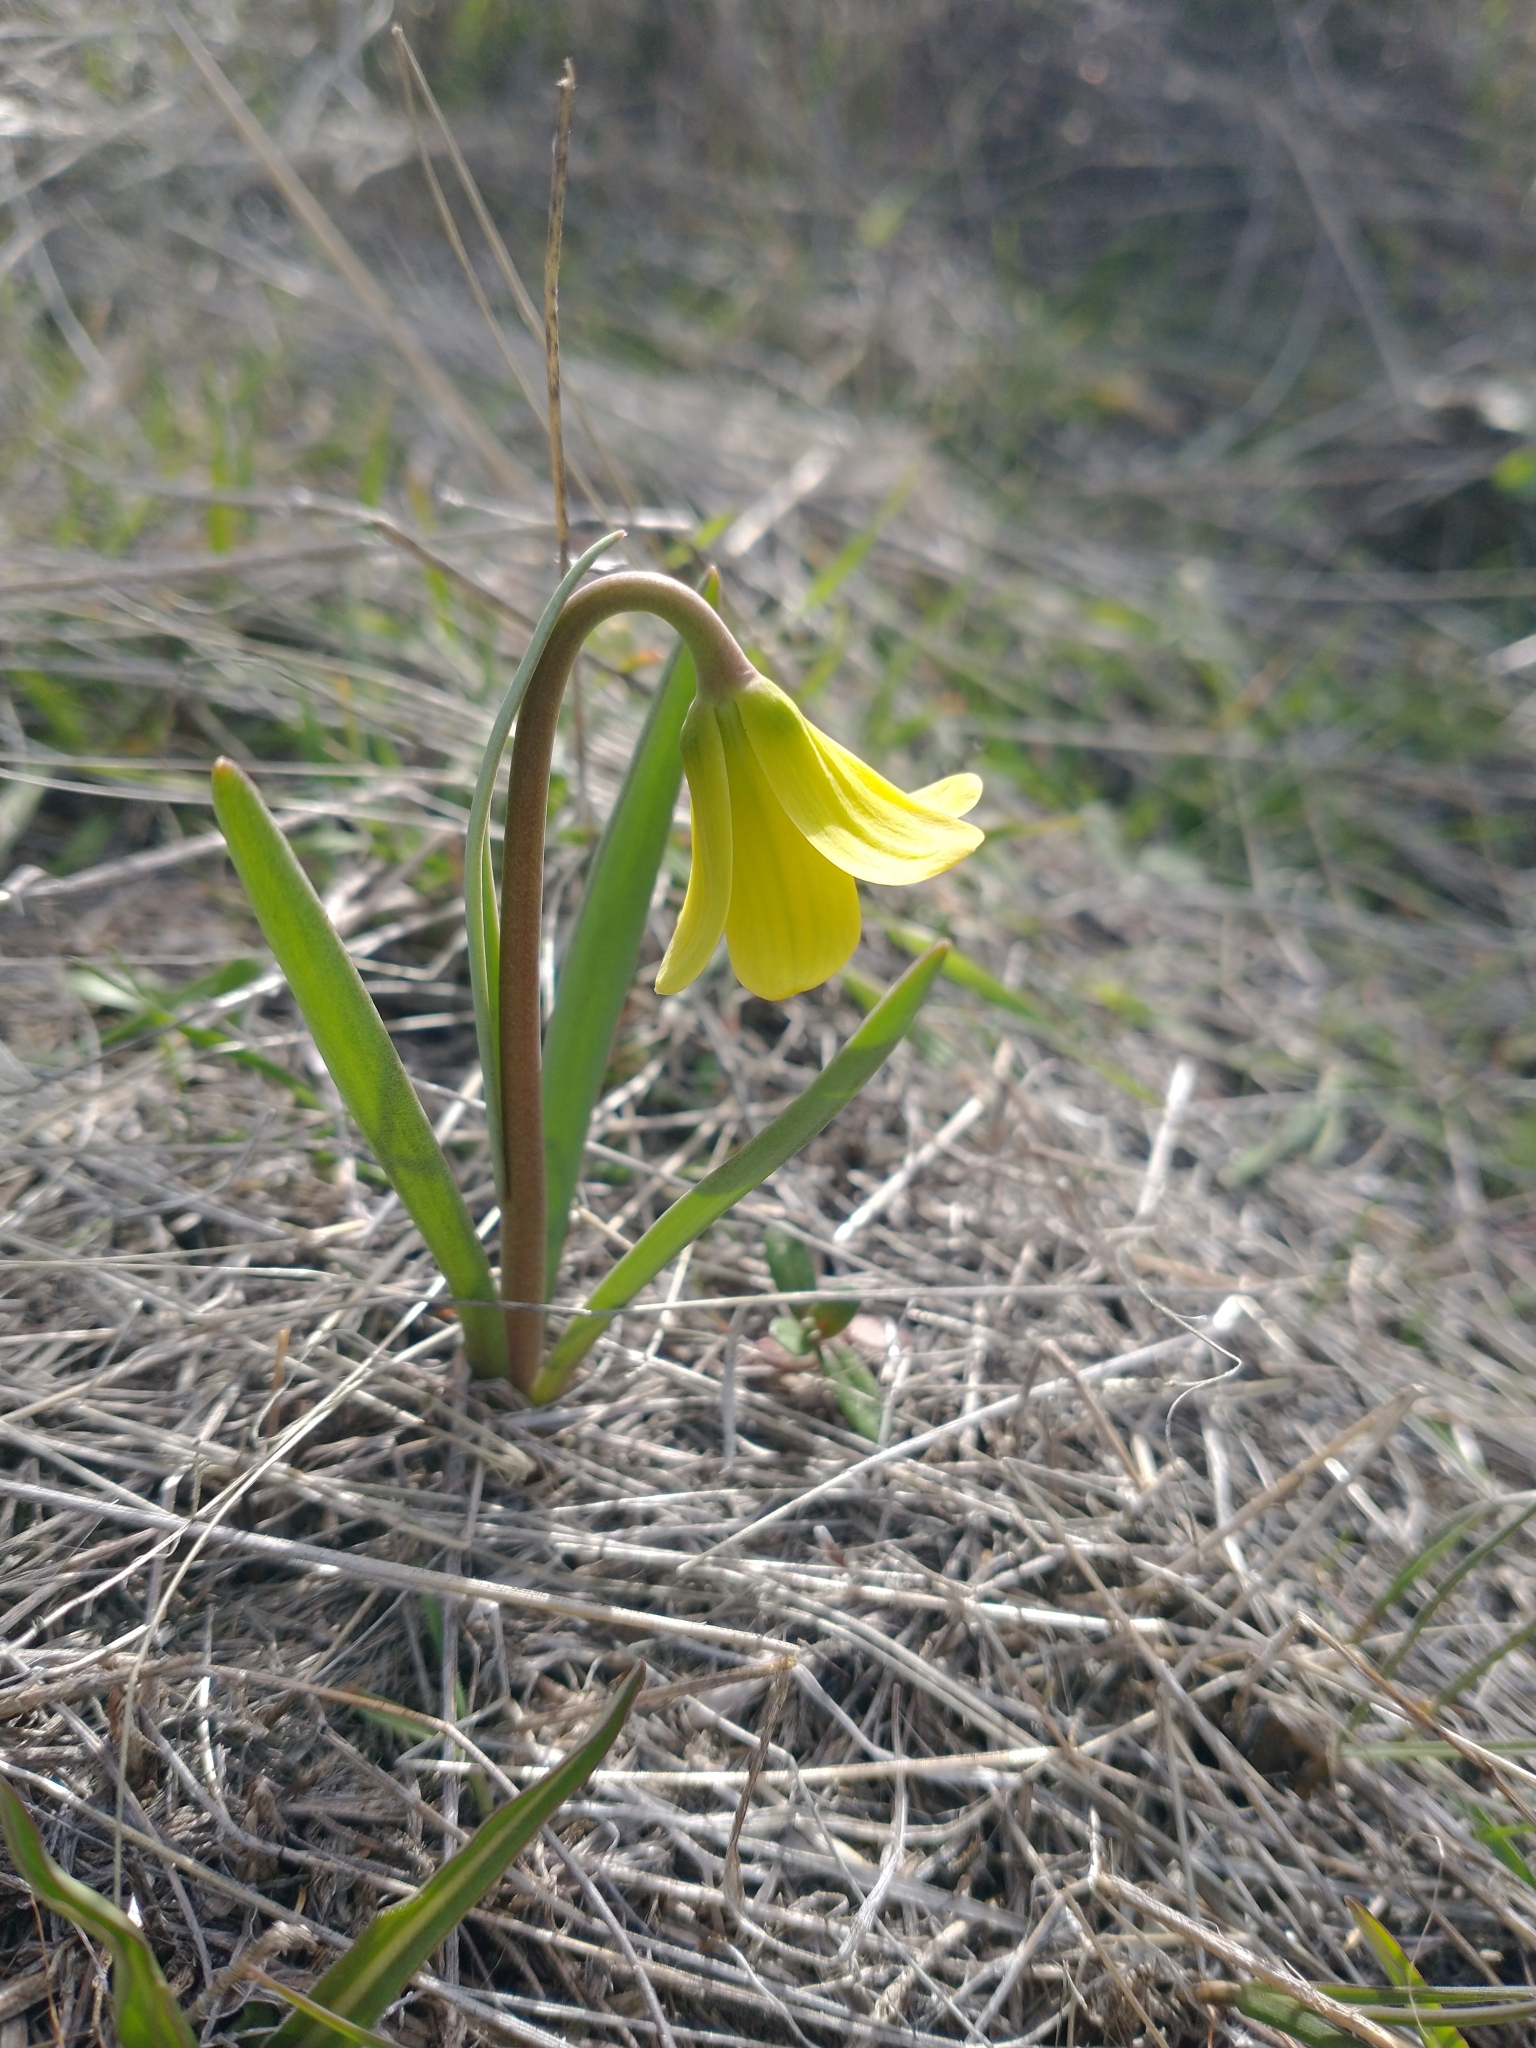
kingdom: Plantae
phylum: Tracheophyta
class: Liliopsida
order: Liliales
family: Liliaceae
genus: Fritillaria
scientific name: Fritillaria pudica
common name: Yellow fritillary
